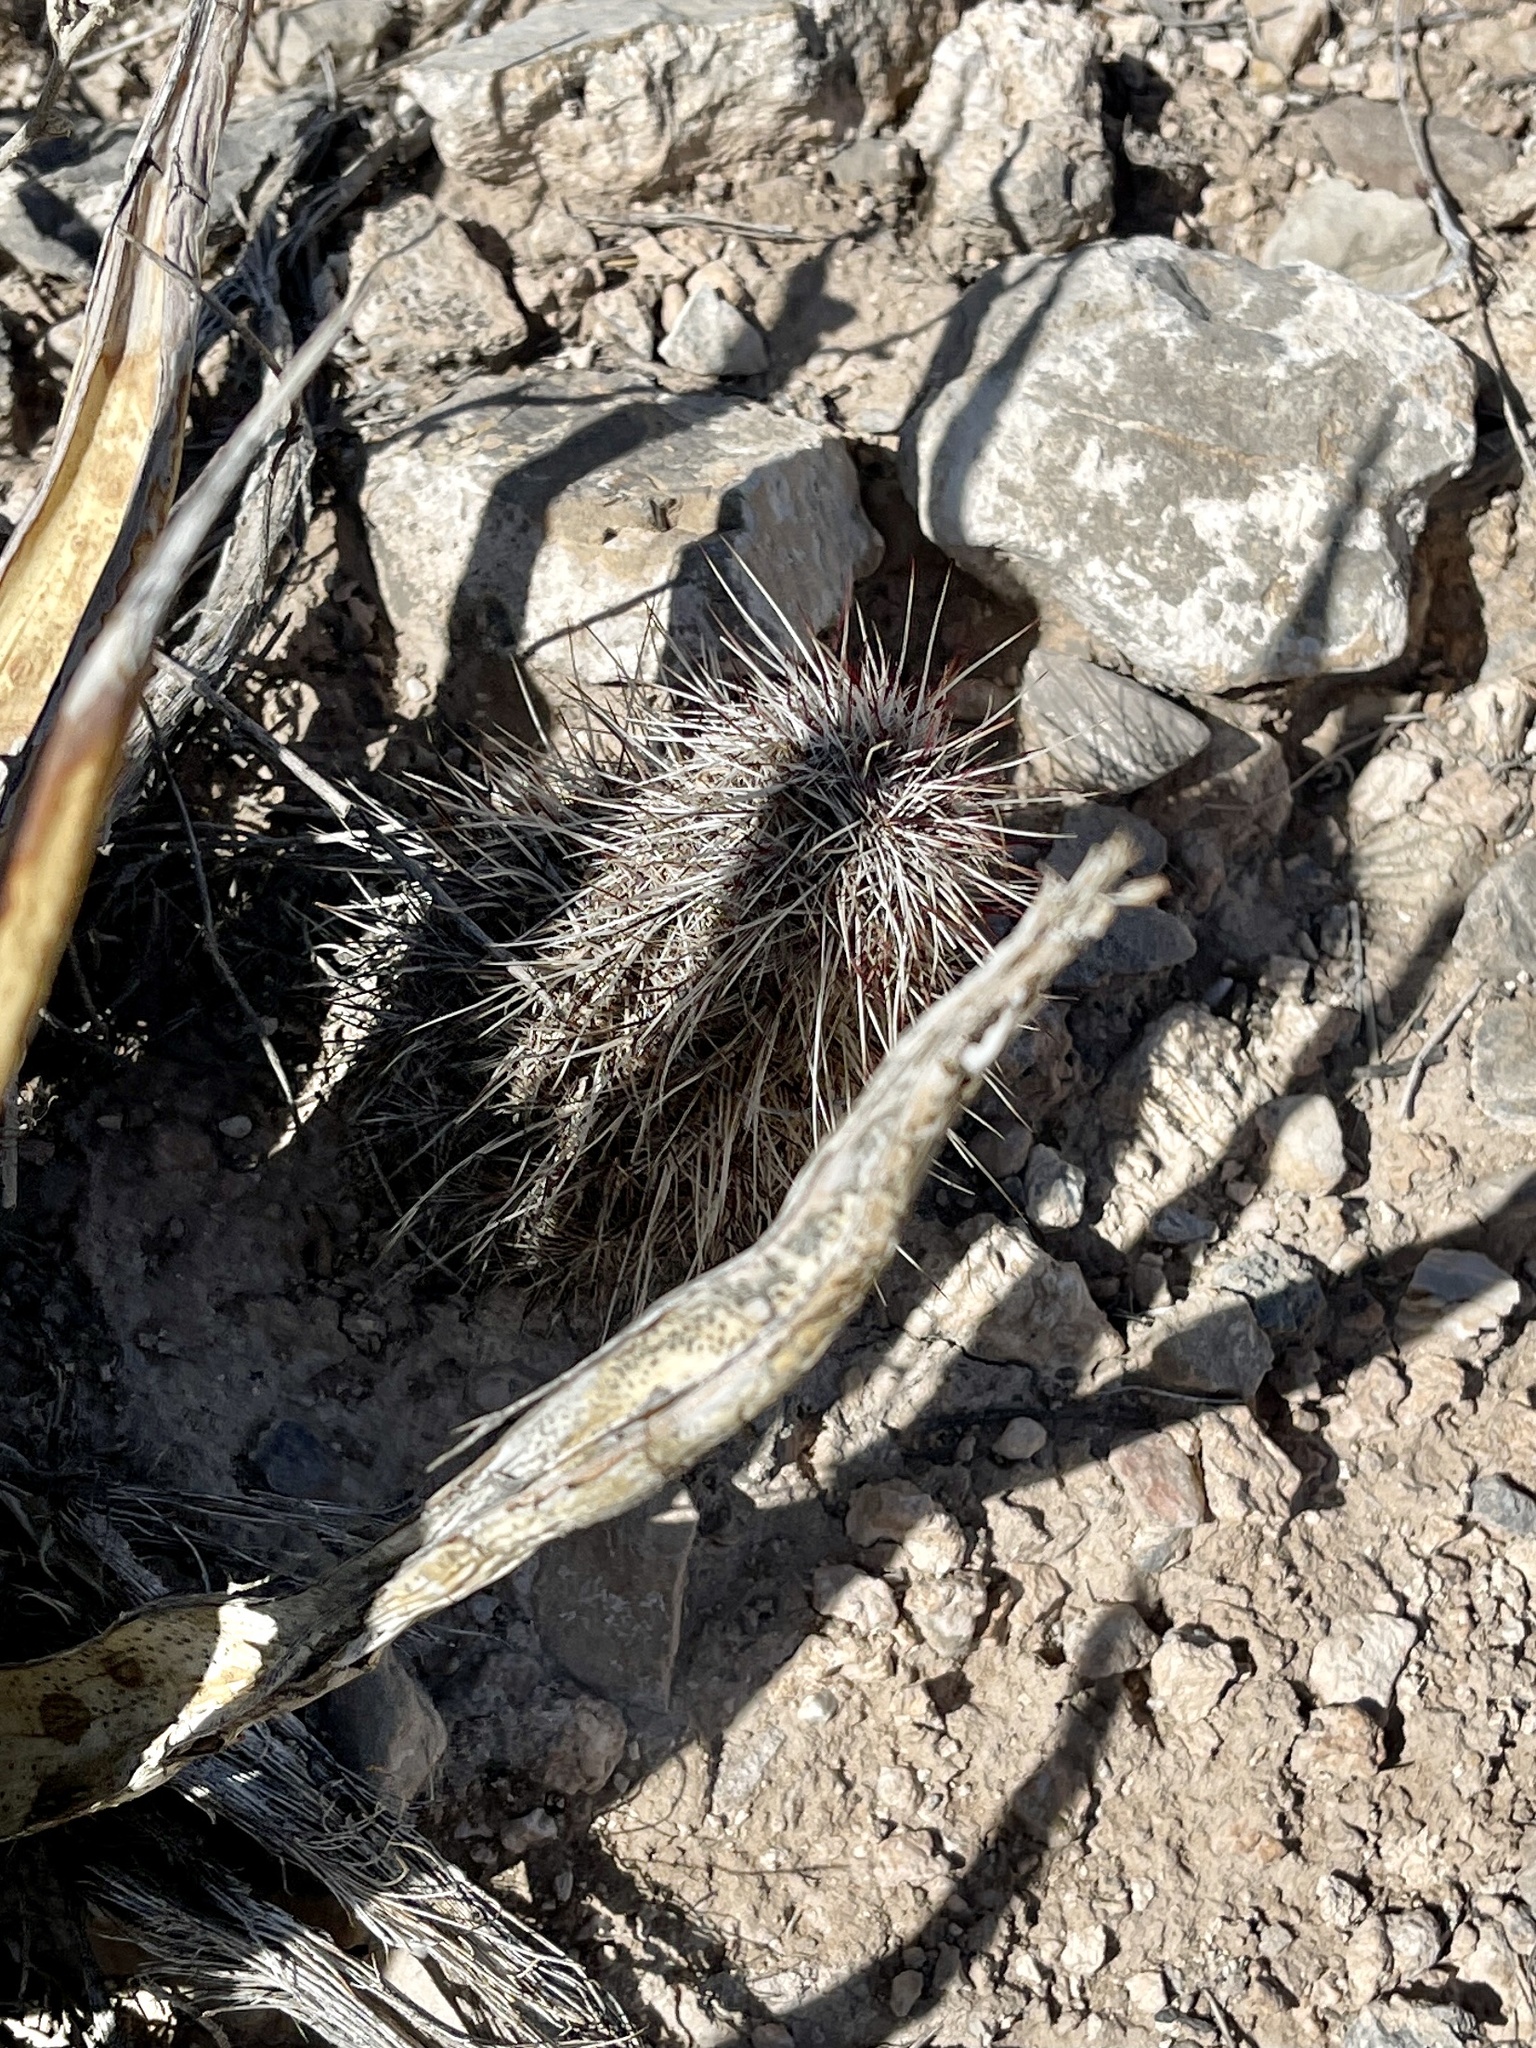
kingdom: Plantae
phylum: Tracheophyta
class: Magnoliopsida
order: Caryophyllales
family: Cactaceae
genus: Echinocereus
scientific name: Echinocereus viridiflorus
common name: Nylon hedgehog cactus
